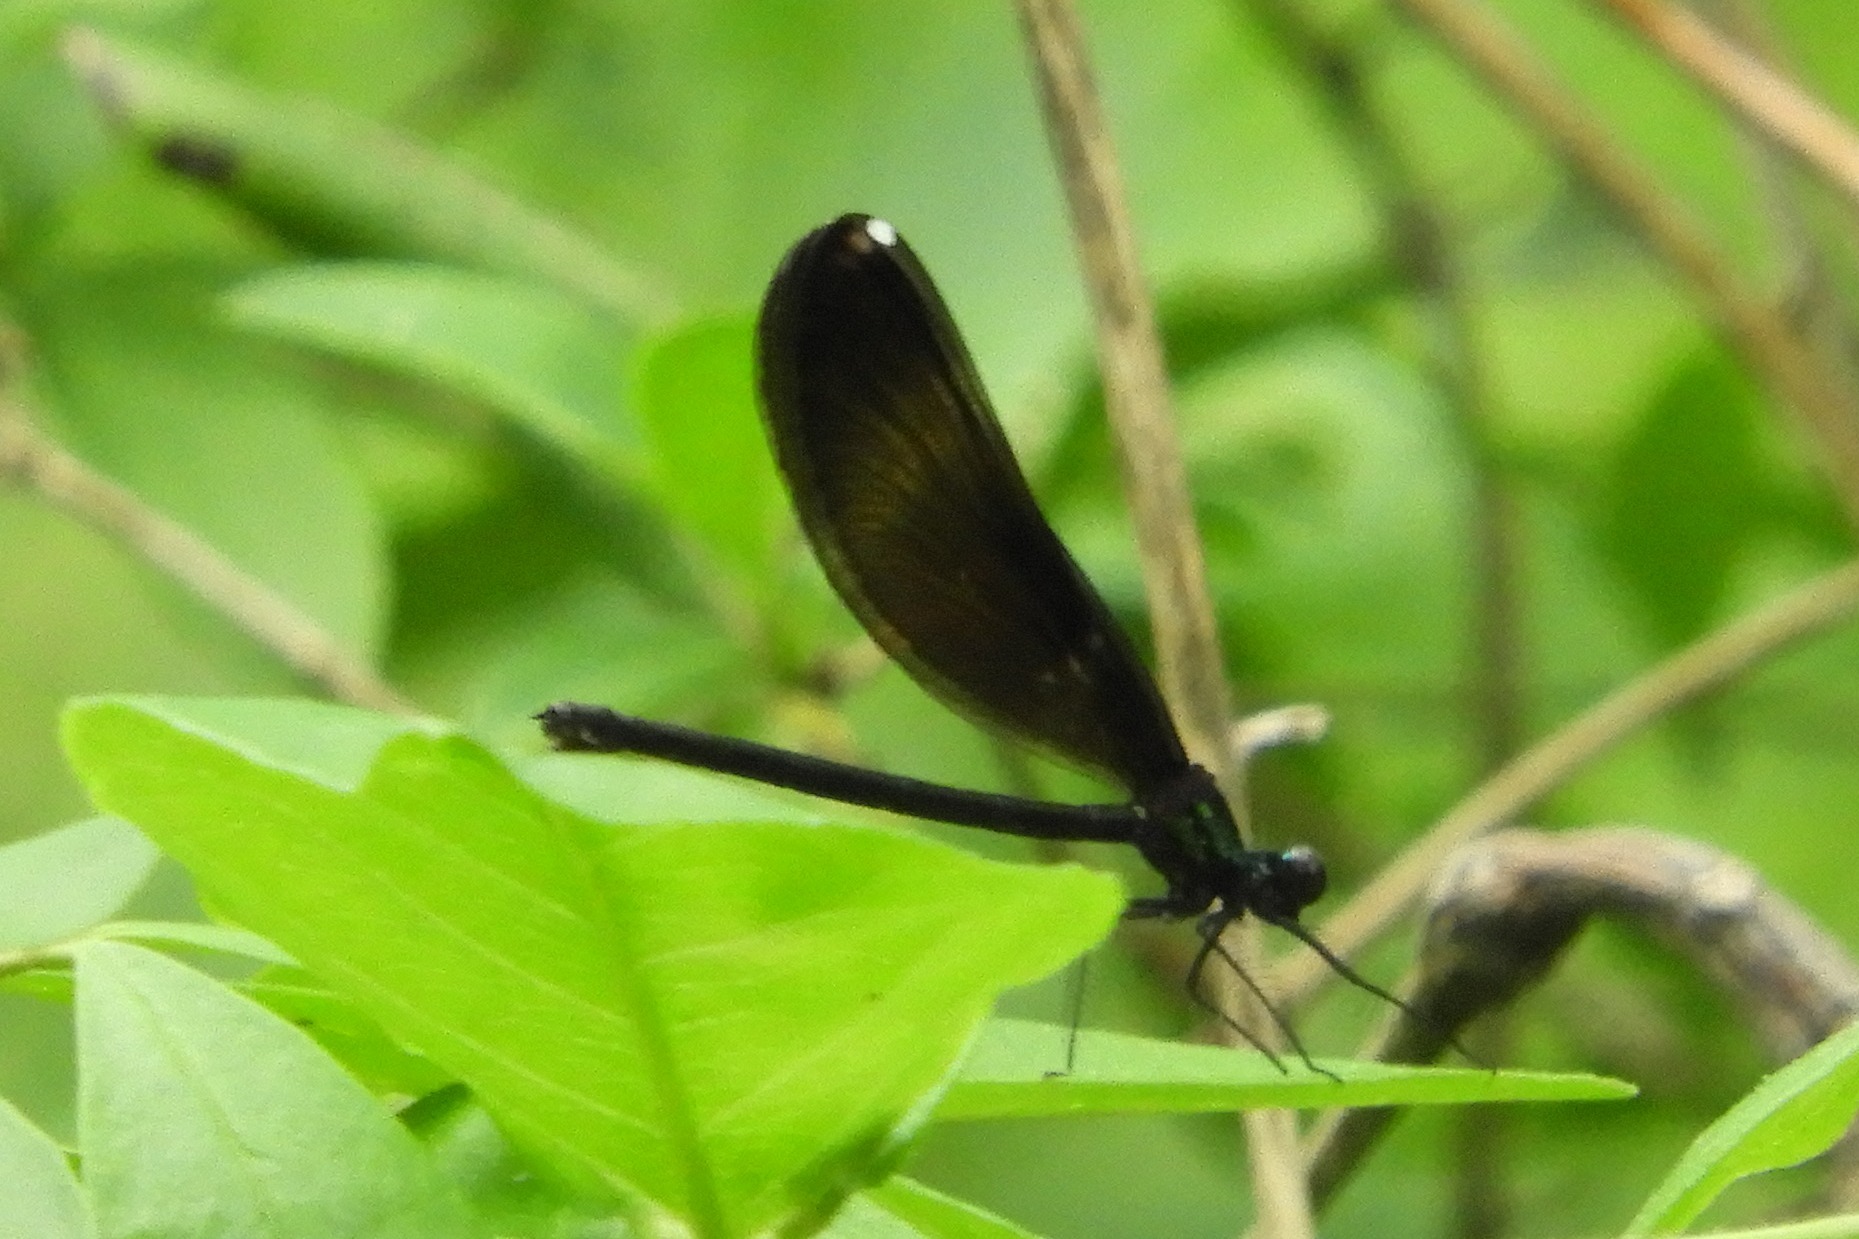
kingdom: Animalia
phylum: Arthropoda
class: Insecta
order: Odonata
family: Calopterygidae
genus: Calopteryx
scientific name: Calopteryx maculata
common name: Ebony jewelwing
